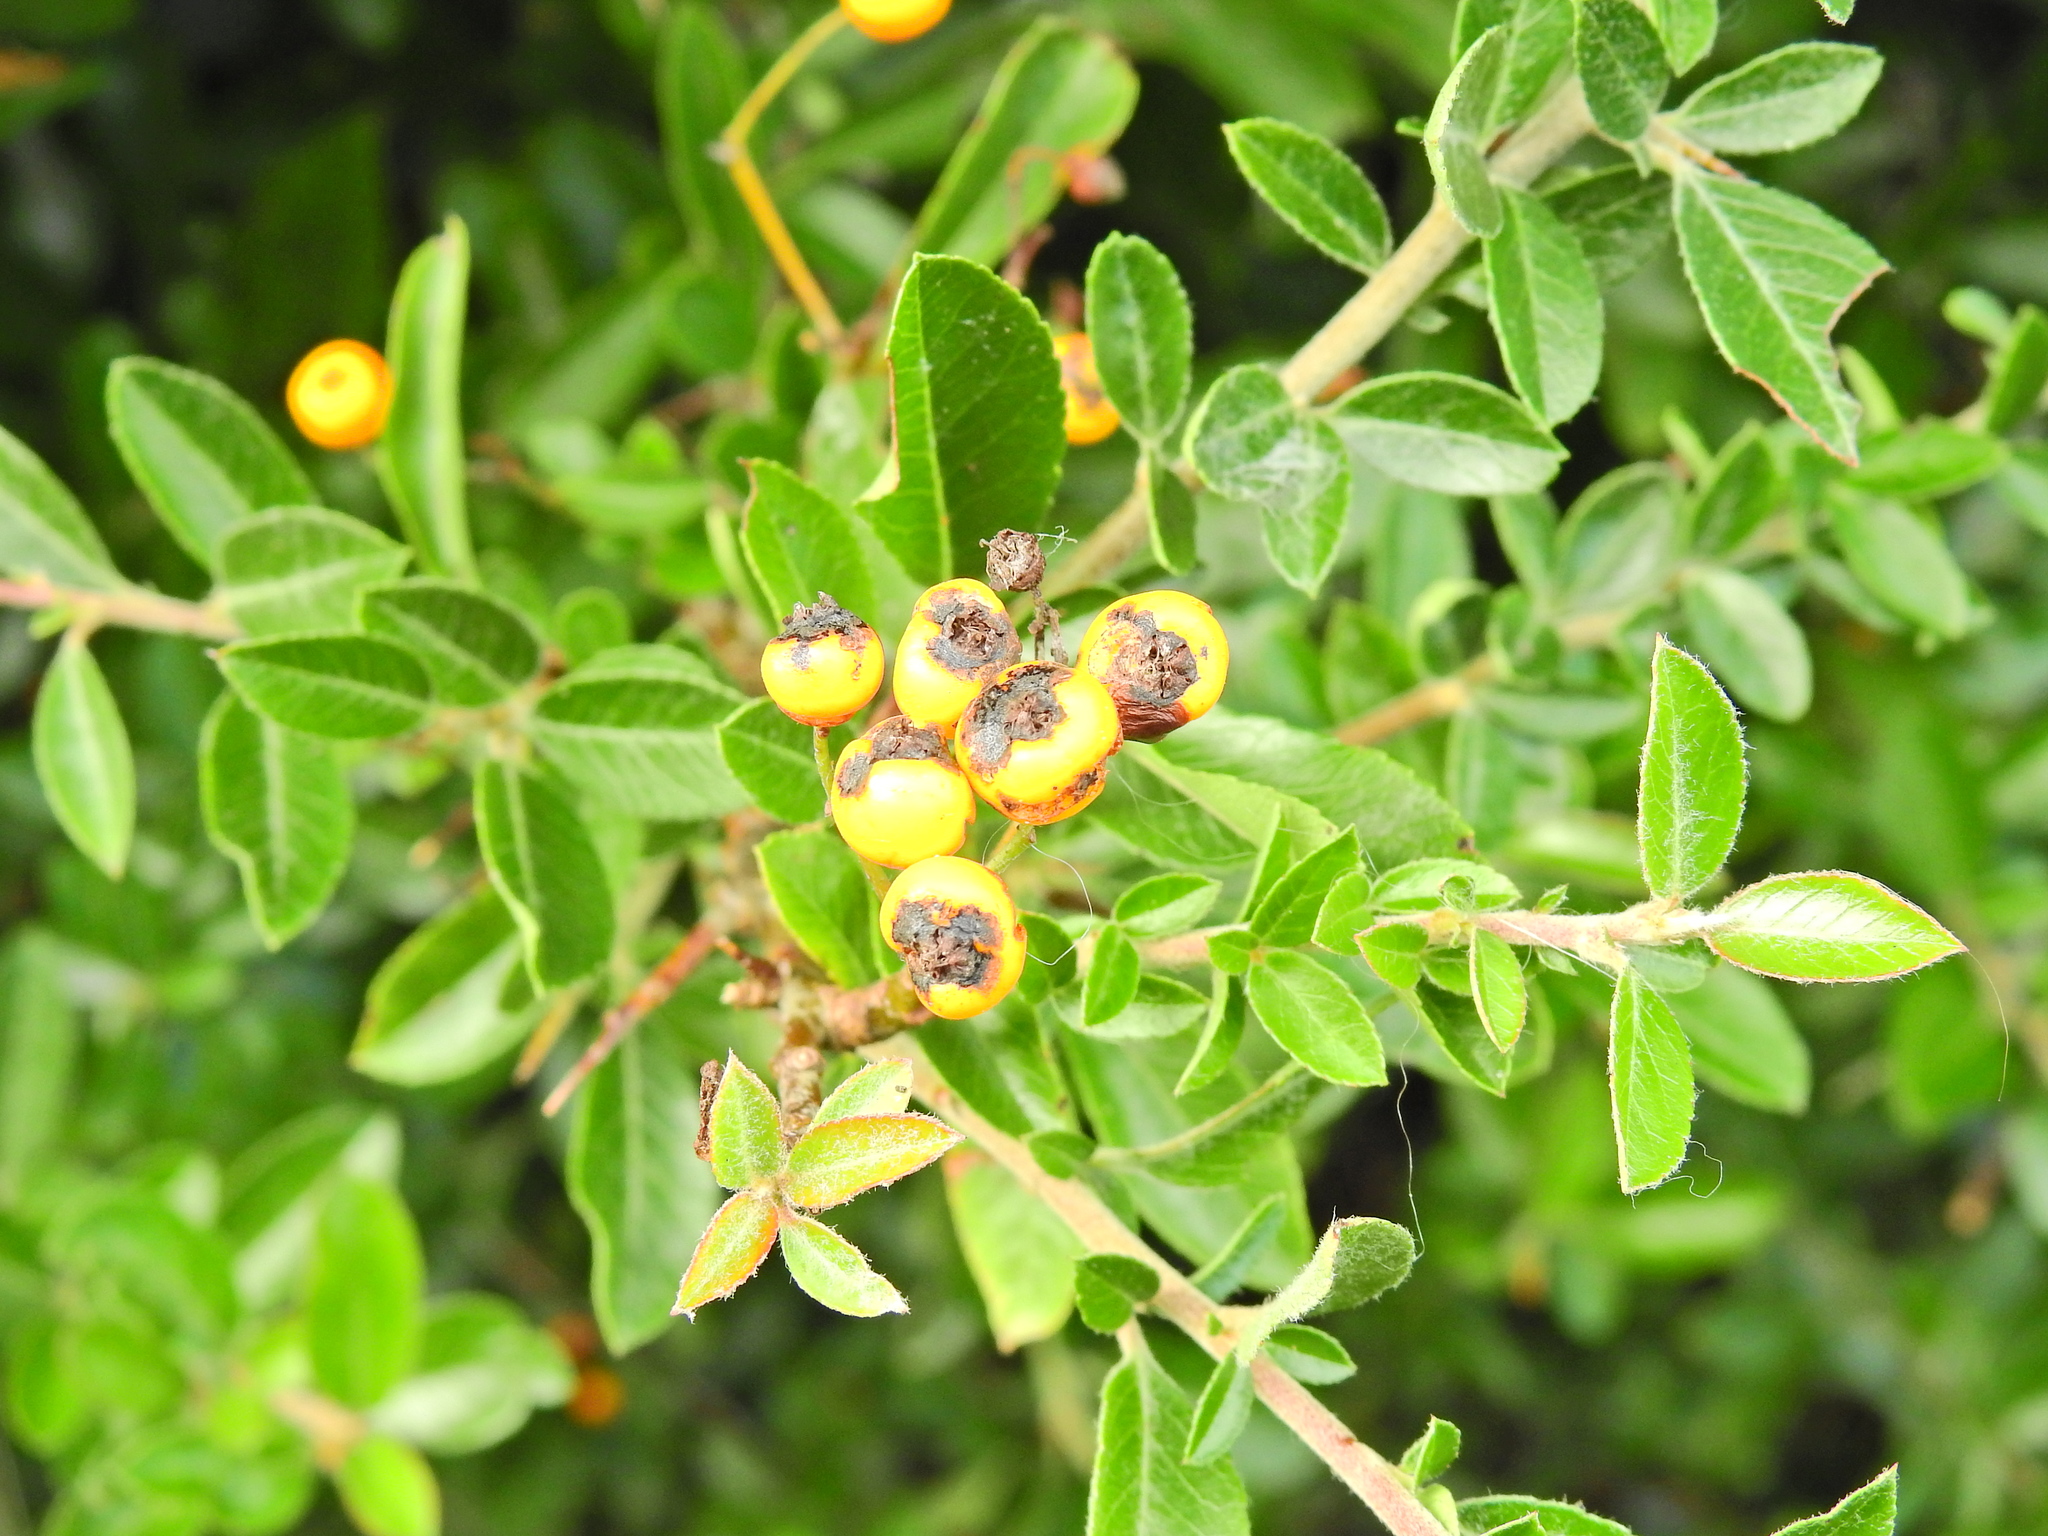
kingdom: Plantae
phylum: Tracheophyta
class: Magnoliopsida
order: Rosales
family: Rosaceae
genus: Pyracantha
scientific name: Pyracantha coccinea
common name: Firethorn
